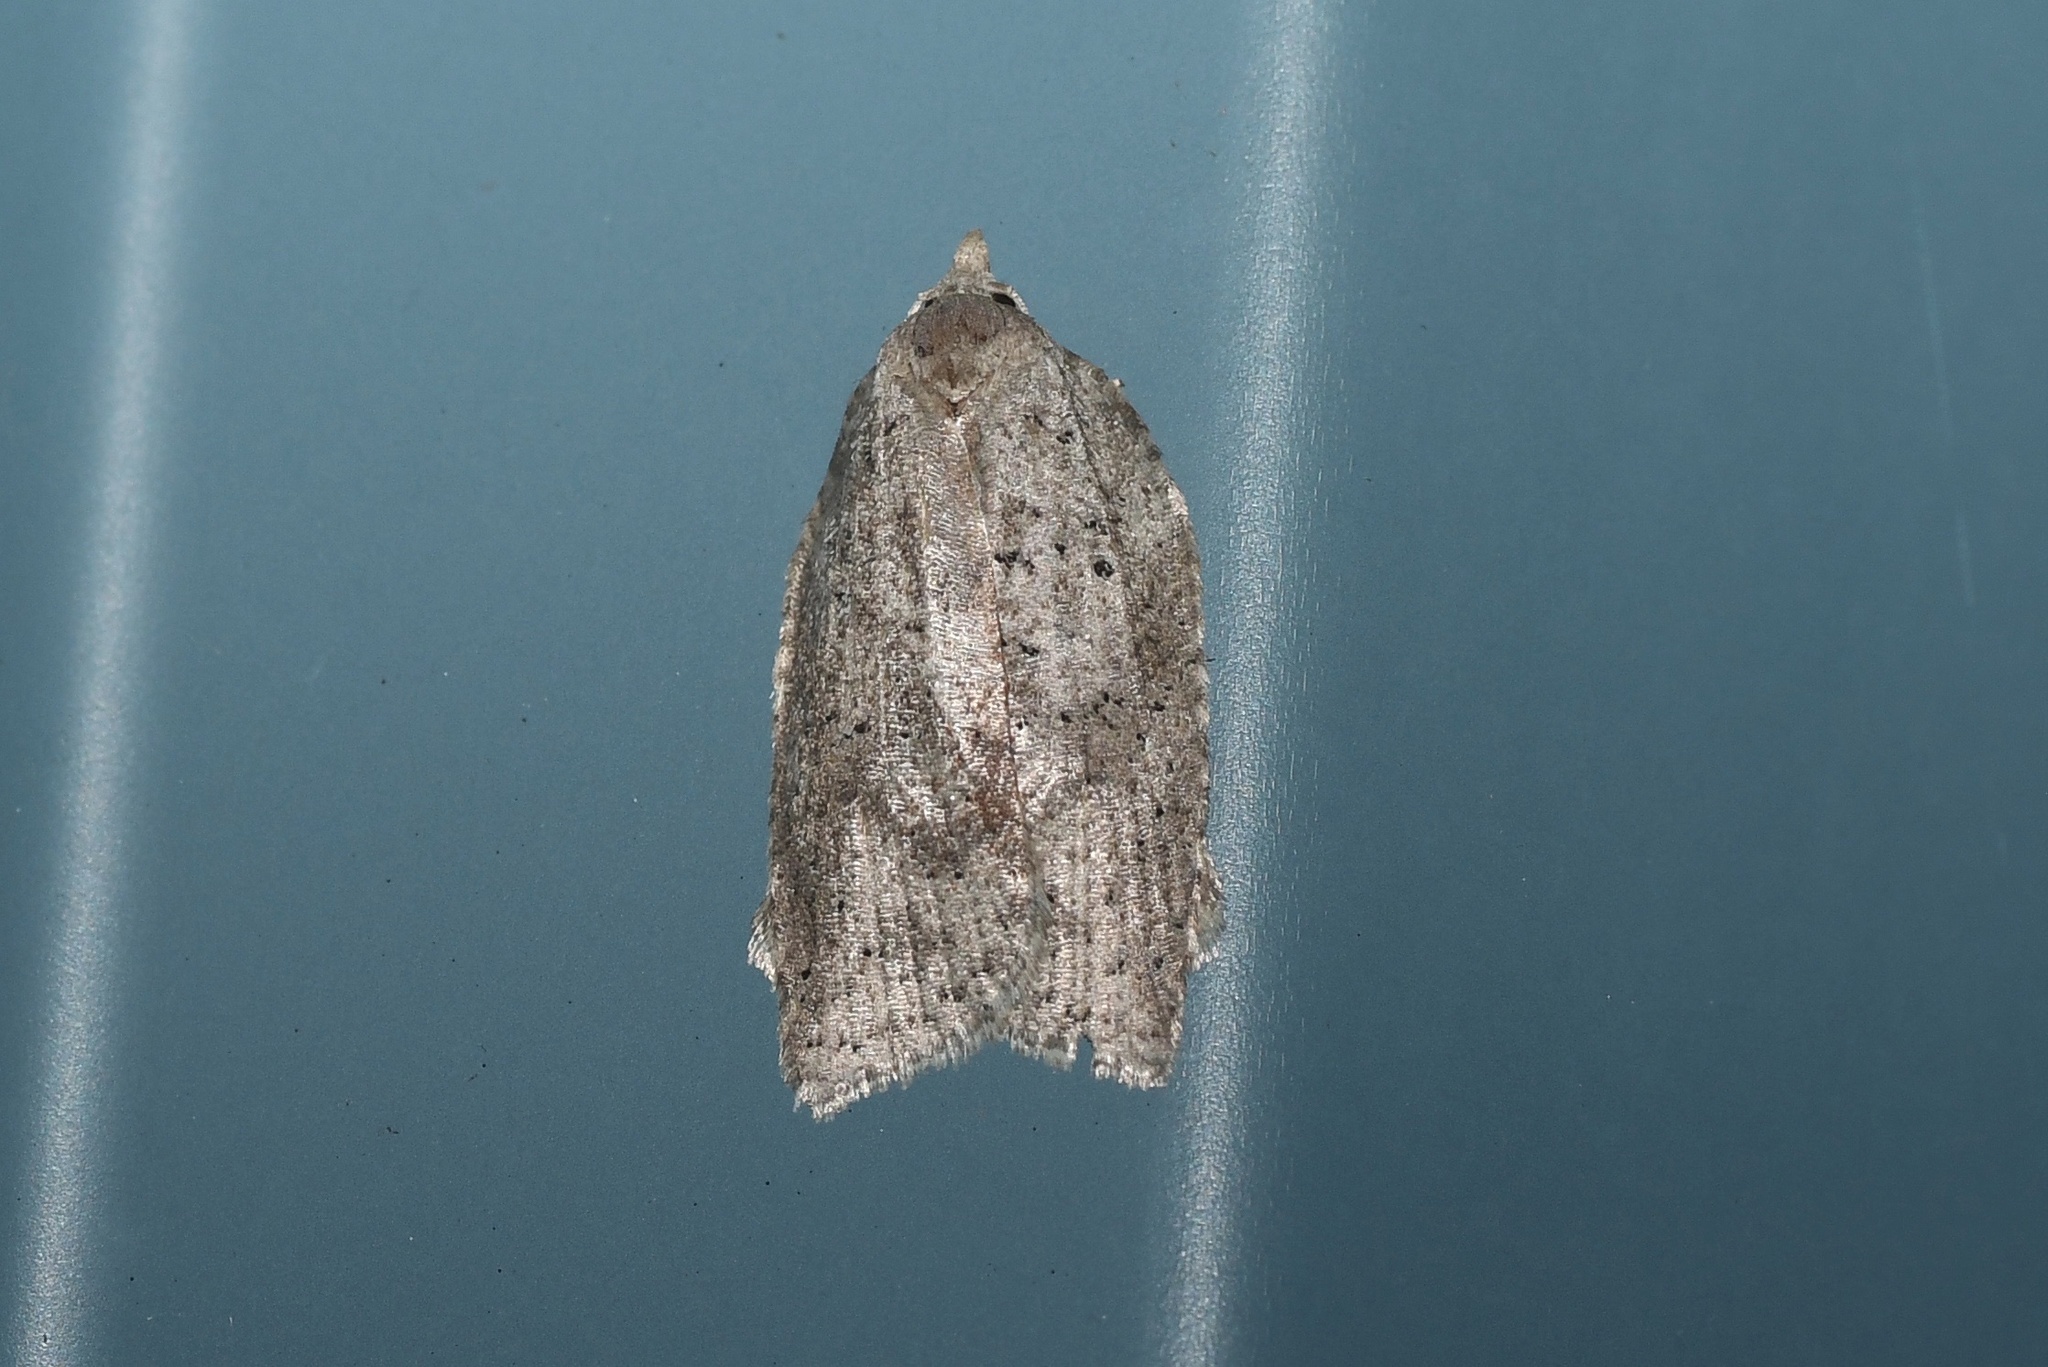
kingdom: Animalia
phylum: Arthropoda
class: Insecta
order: Lepidoptera
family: Tortricidae
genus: Amorbia
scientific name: Amorbia humerosana
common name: White-lined leafroller moth
